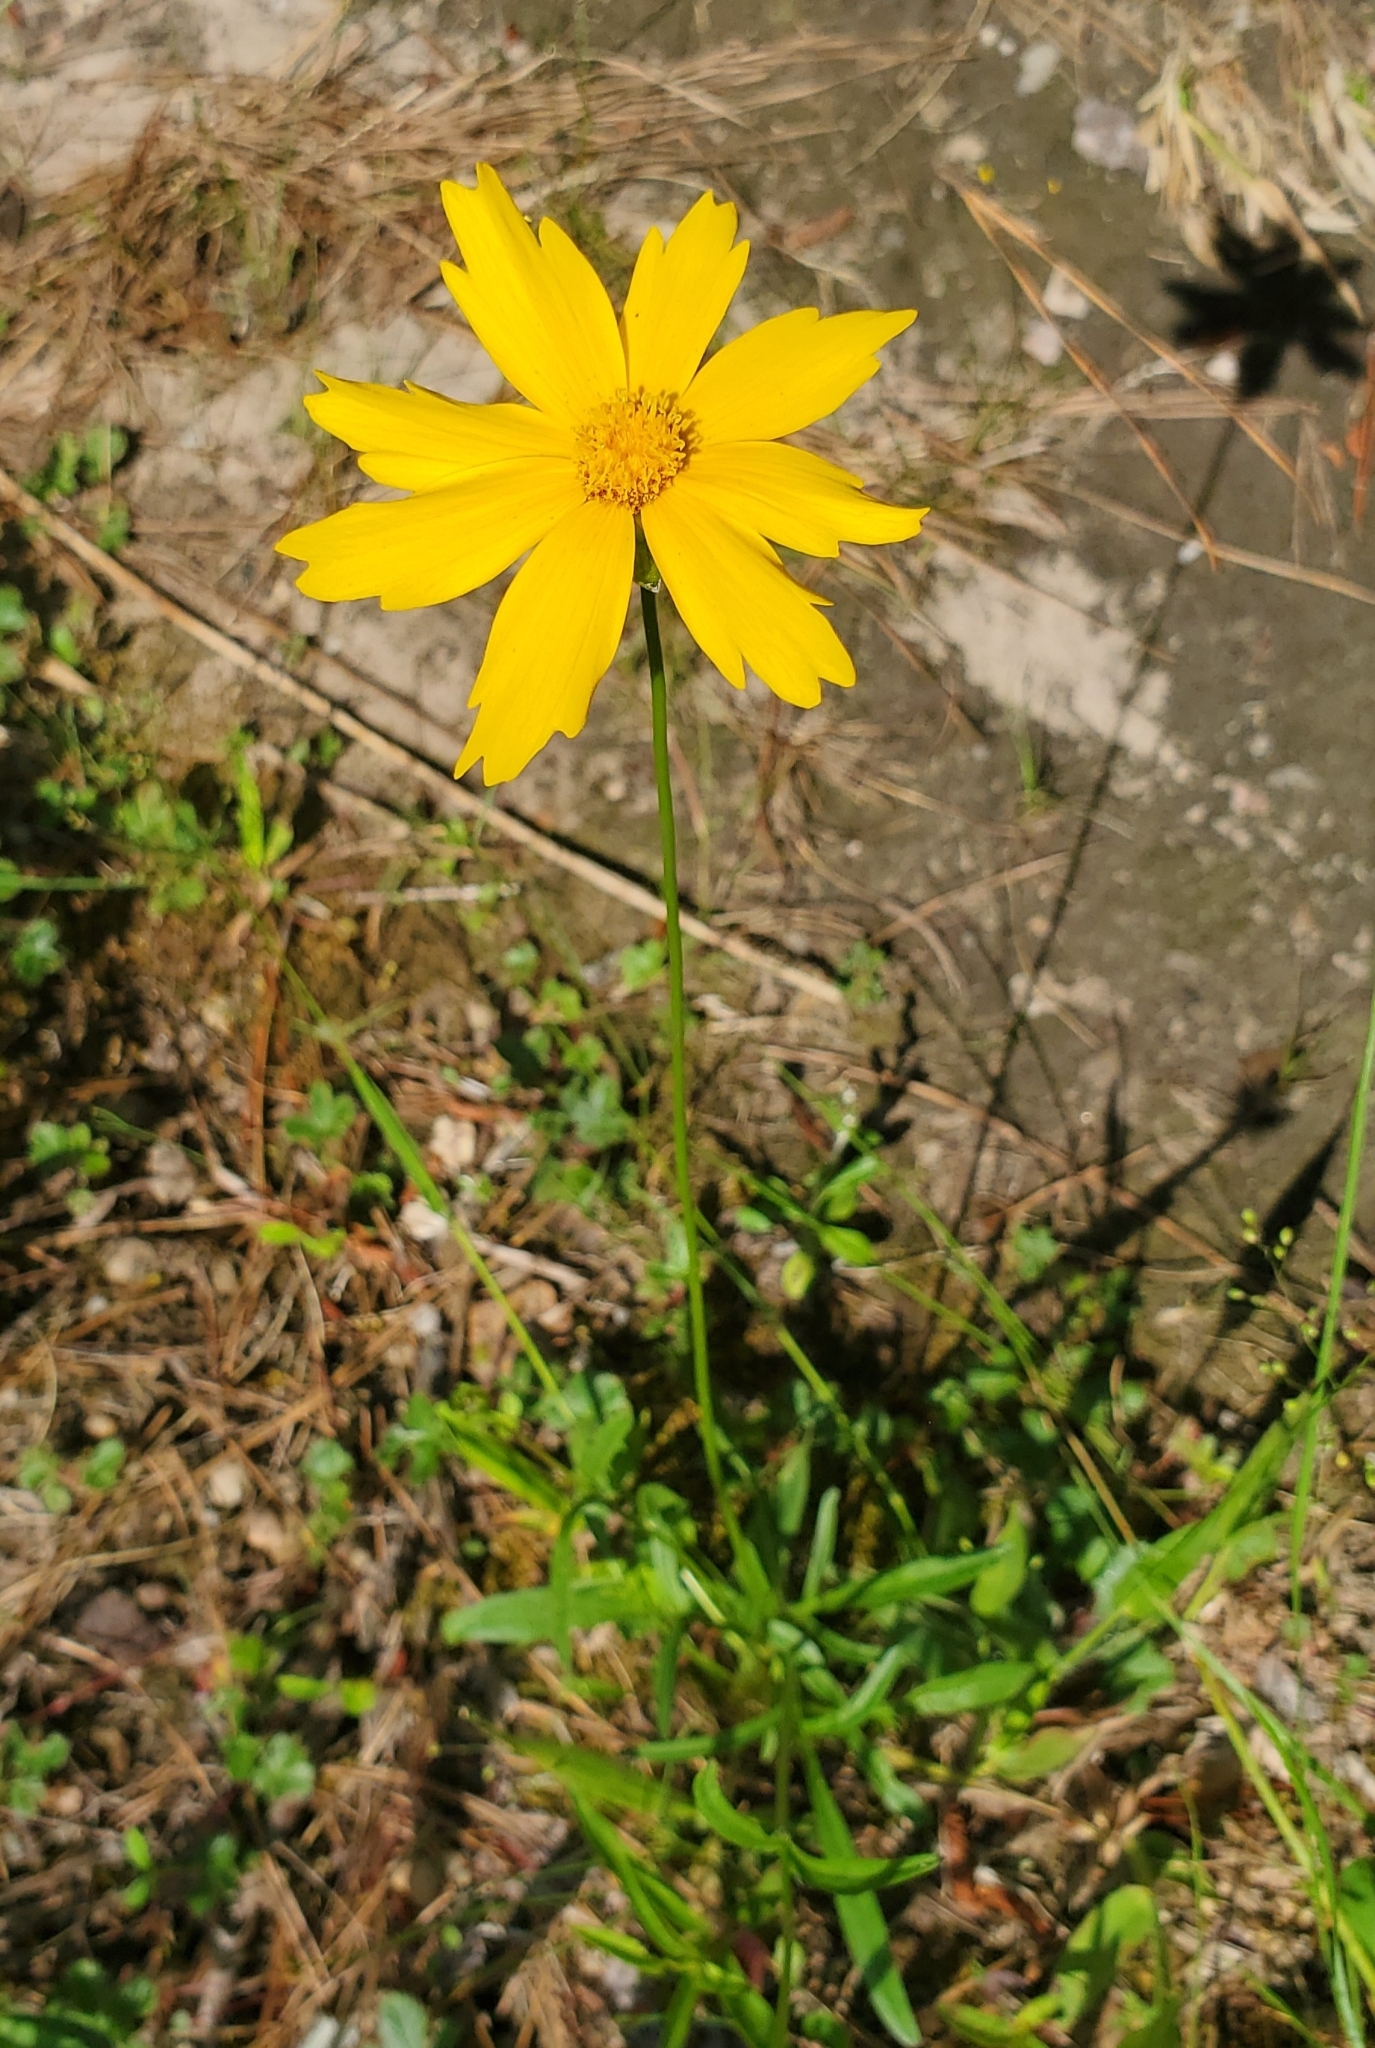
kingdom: Plantae
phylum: Tracheophyta
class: Magnoliopsida
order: Asterales
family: Asteraceae
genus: Coreopsis
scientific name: Coreopsis lanceolata
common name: Garden coreopsis
